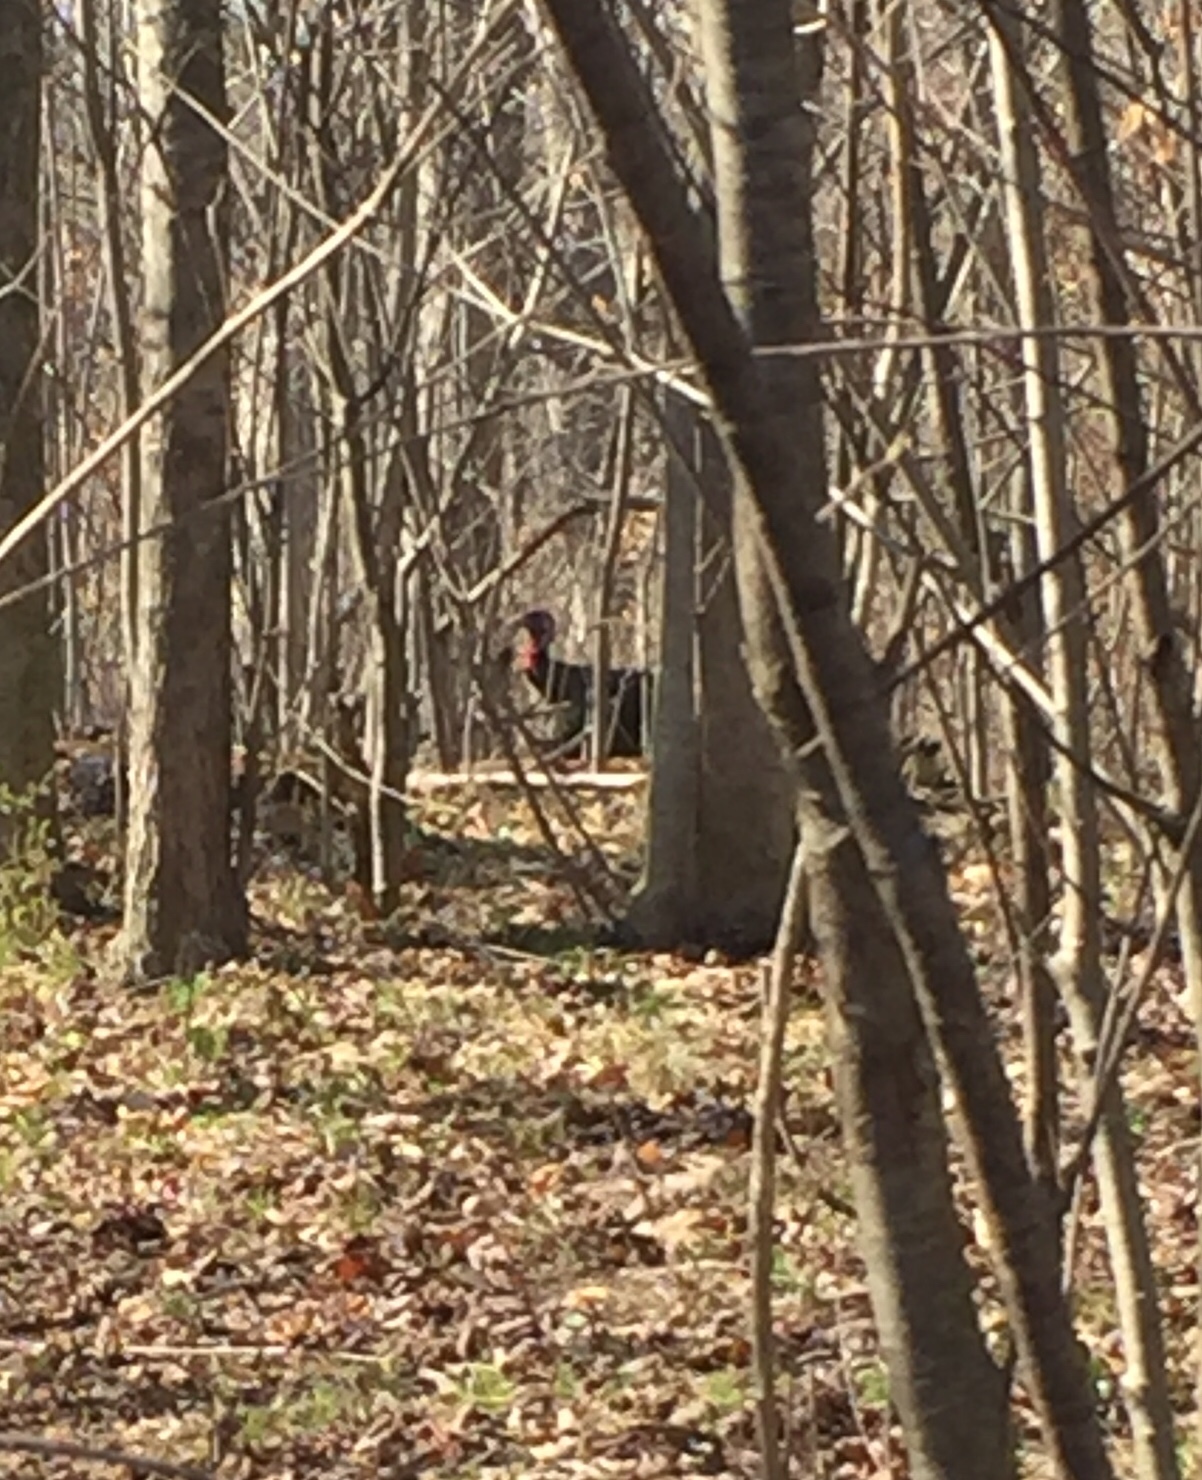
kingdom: Animalia
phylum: Chordata
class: Aves
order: Galliformes
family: Phasianidae
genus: Meleagris
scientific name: Meleagris gallopavo
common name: Wild turkey
